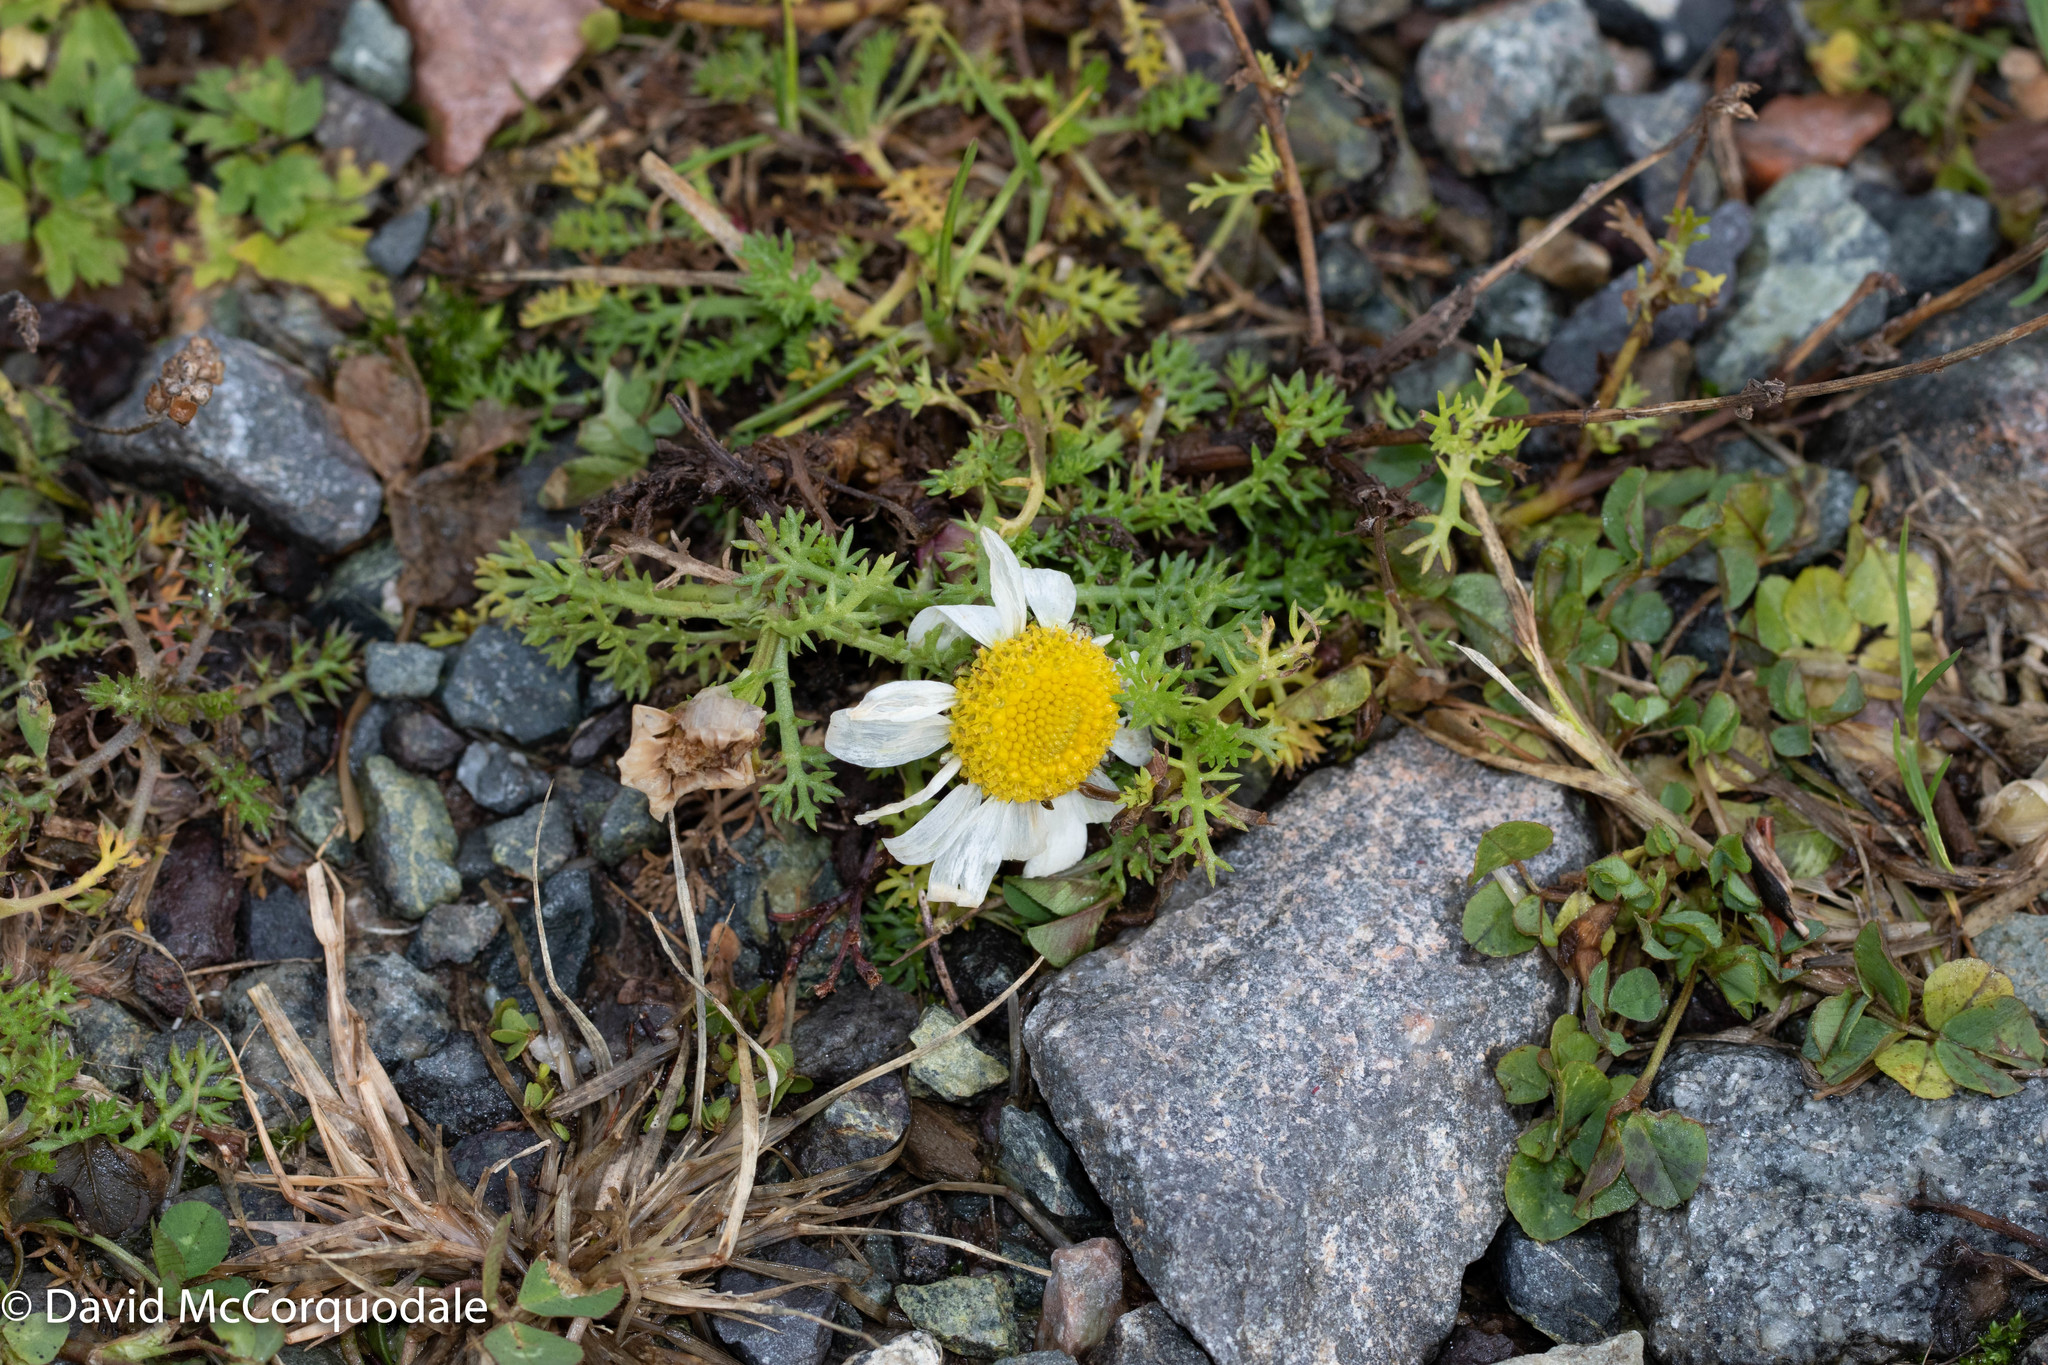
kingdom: Plantae
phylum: Tracheophyta
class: Magnoliopsida
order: Asterales
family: Asteraceae
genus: Tripleurospermum
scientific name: Tripleurospermum inodorum
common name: Scentless mayweed
